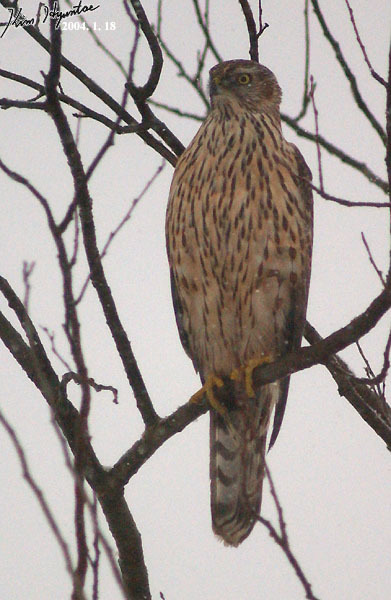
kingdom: Animalia
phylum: Chordata
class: Aves
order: Accipitriformes
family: Accipitridae
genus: Accipiter
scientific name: Accipiter gentilis
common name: Northern goshawk
